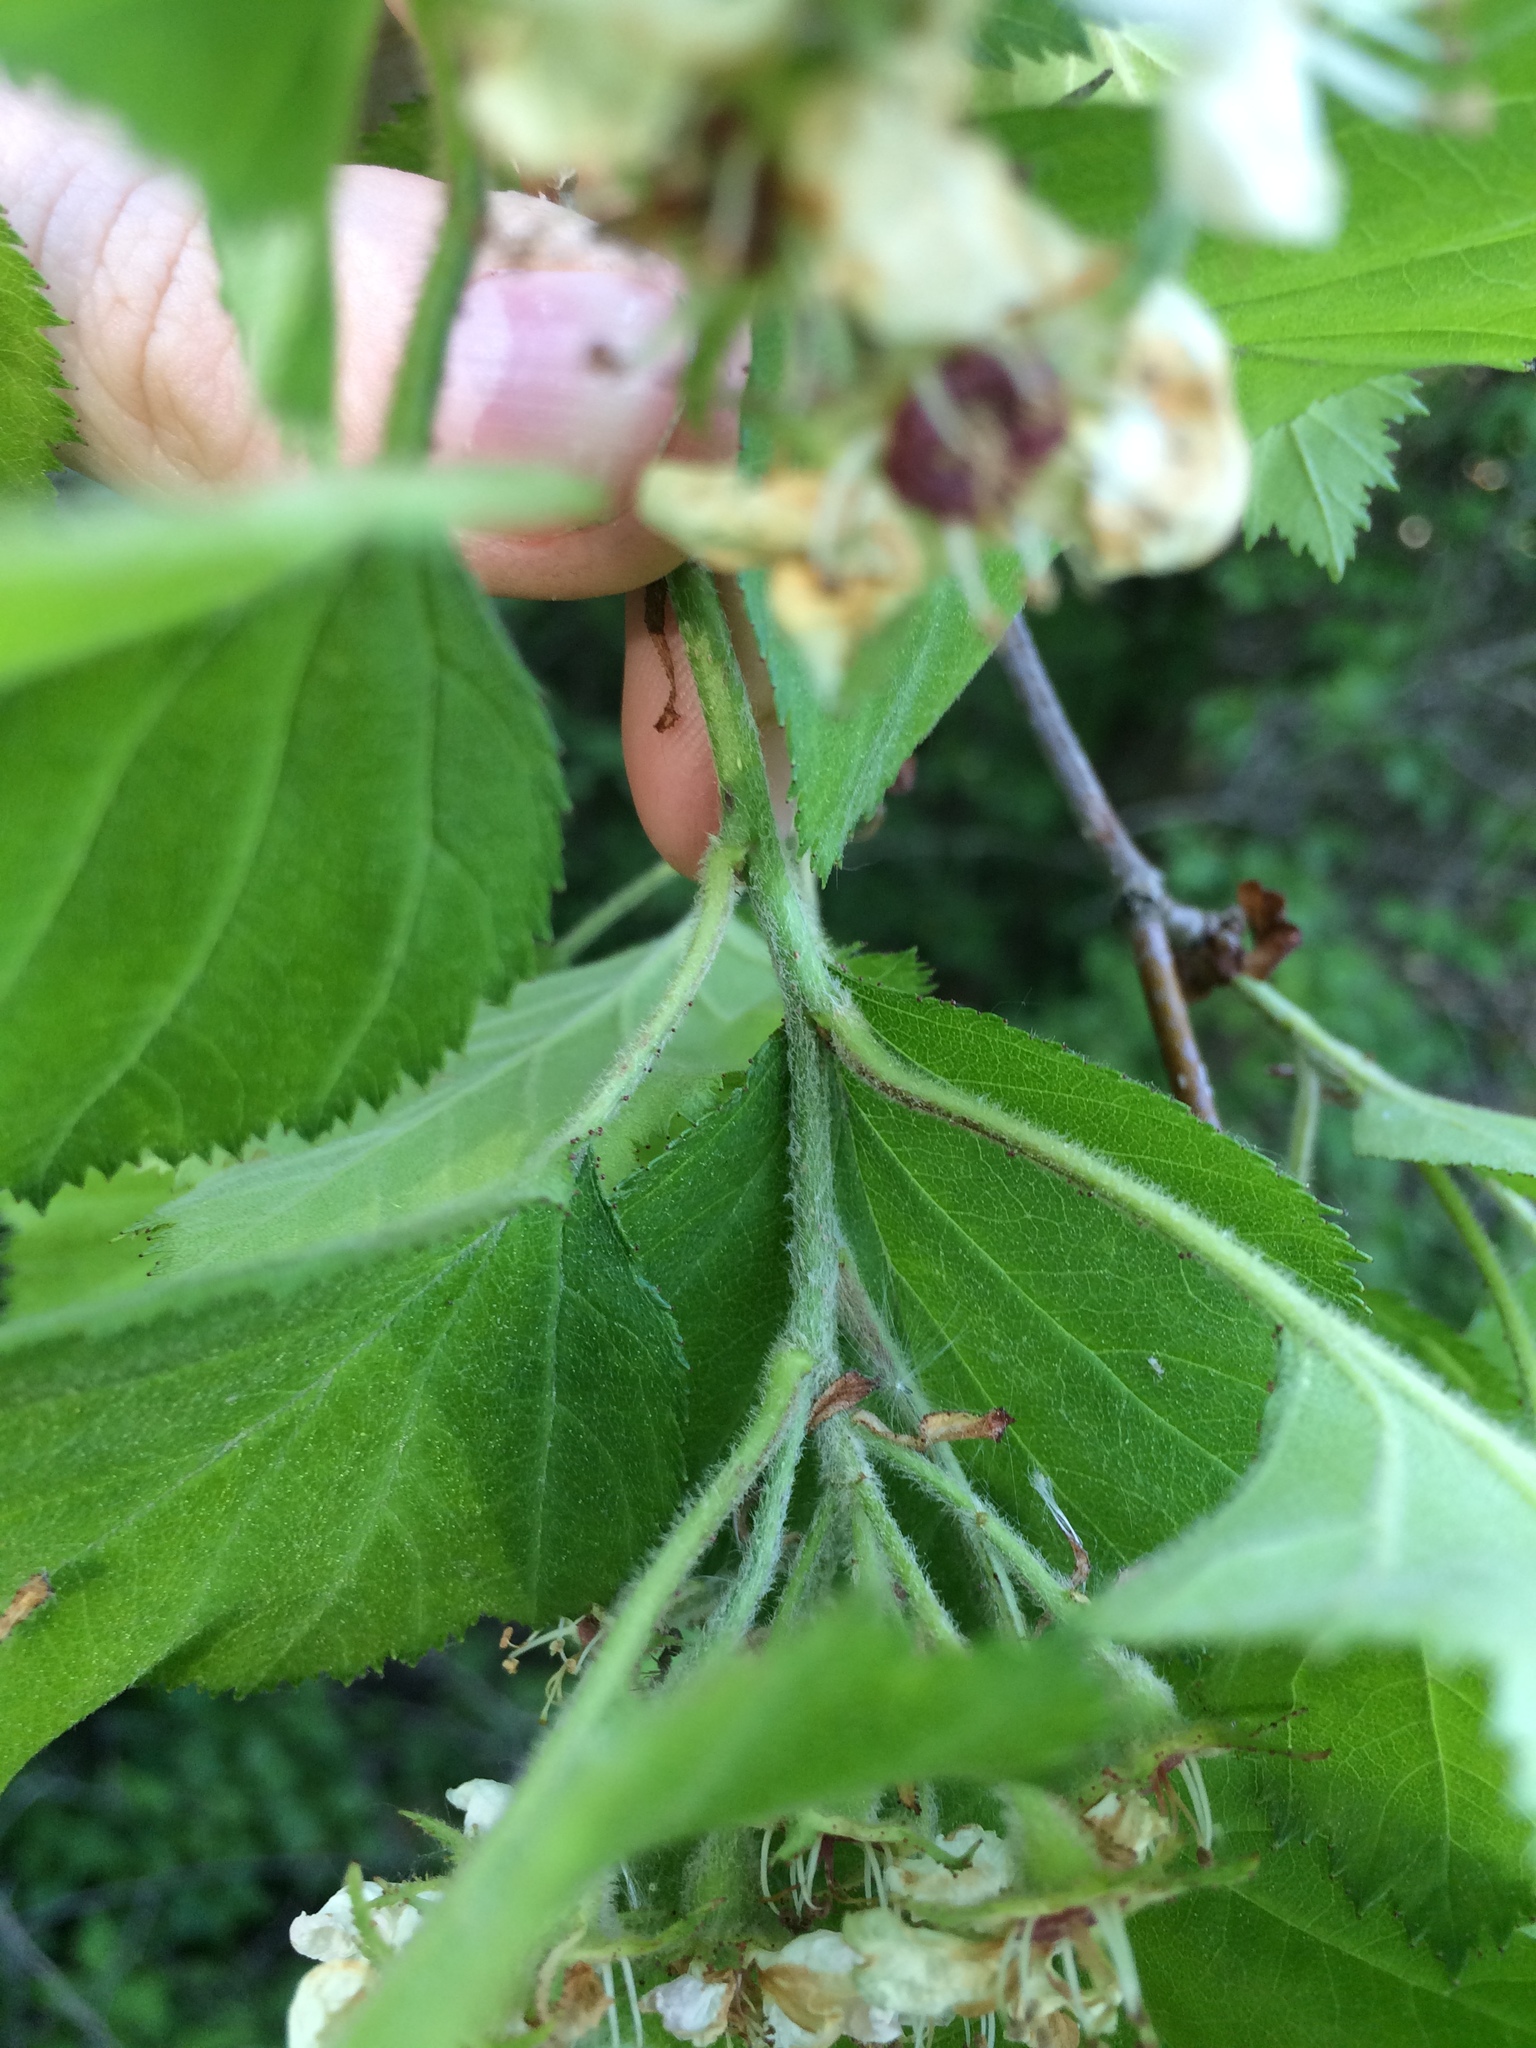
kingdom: Plantae
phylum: Tracheophyta
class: Magnoliopsida
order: Rosales
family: Rosaceae
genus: Crataegus
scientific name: Crataegus submollis
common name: Hairy cockspurthorn
